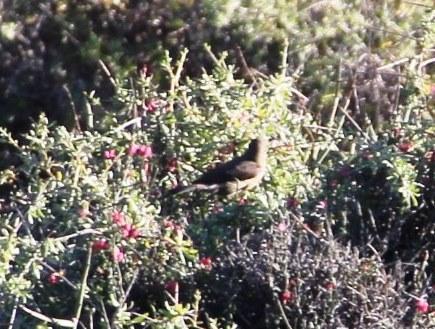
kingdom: Animalia
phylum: Chordata
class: Aves
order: Passeriformes
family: Nectariniidae
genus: Nectarinia
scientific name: Nectarinia famosa
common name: Malachite sunbird
